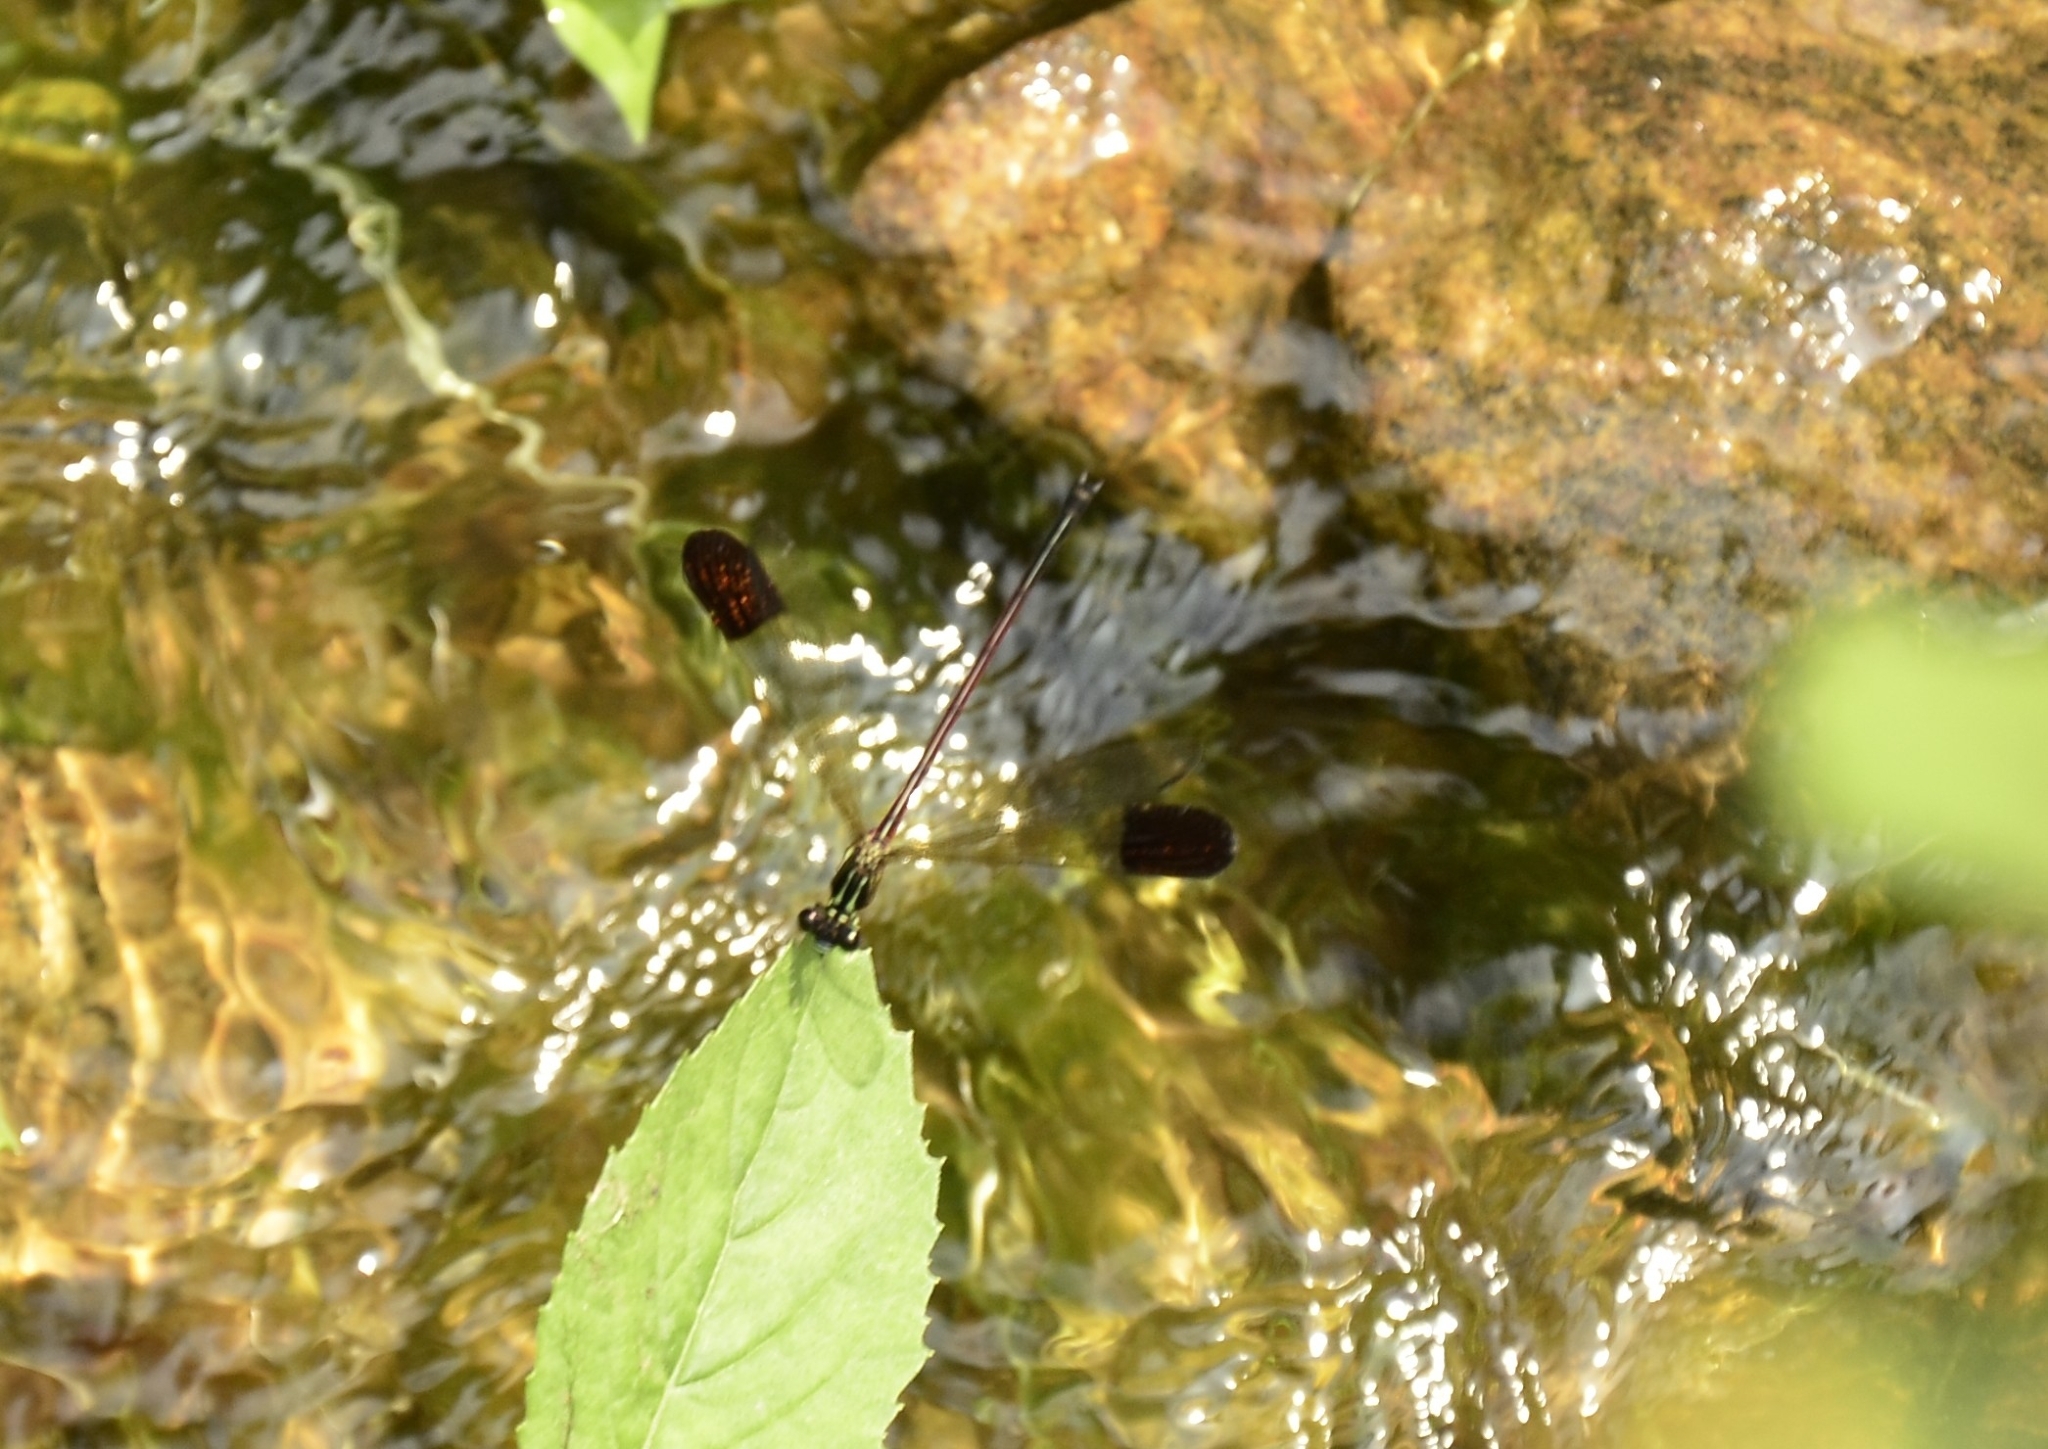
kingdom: Animalia
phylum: Arthropoda
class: Insecta
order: Odonata
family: Euphaeidae
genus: Euphaea
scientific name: Euphaea fraseri
